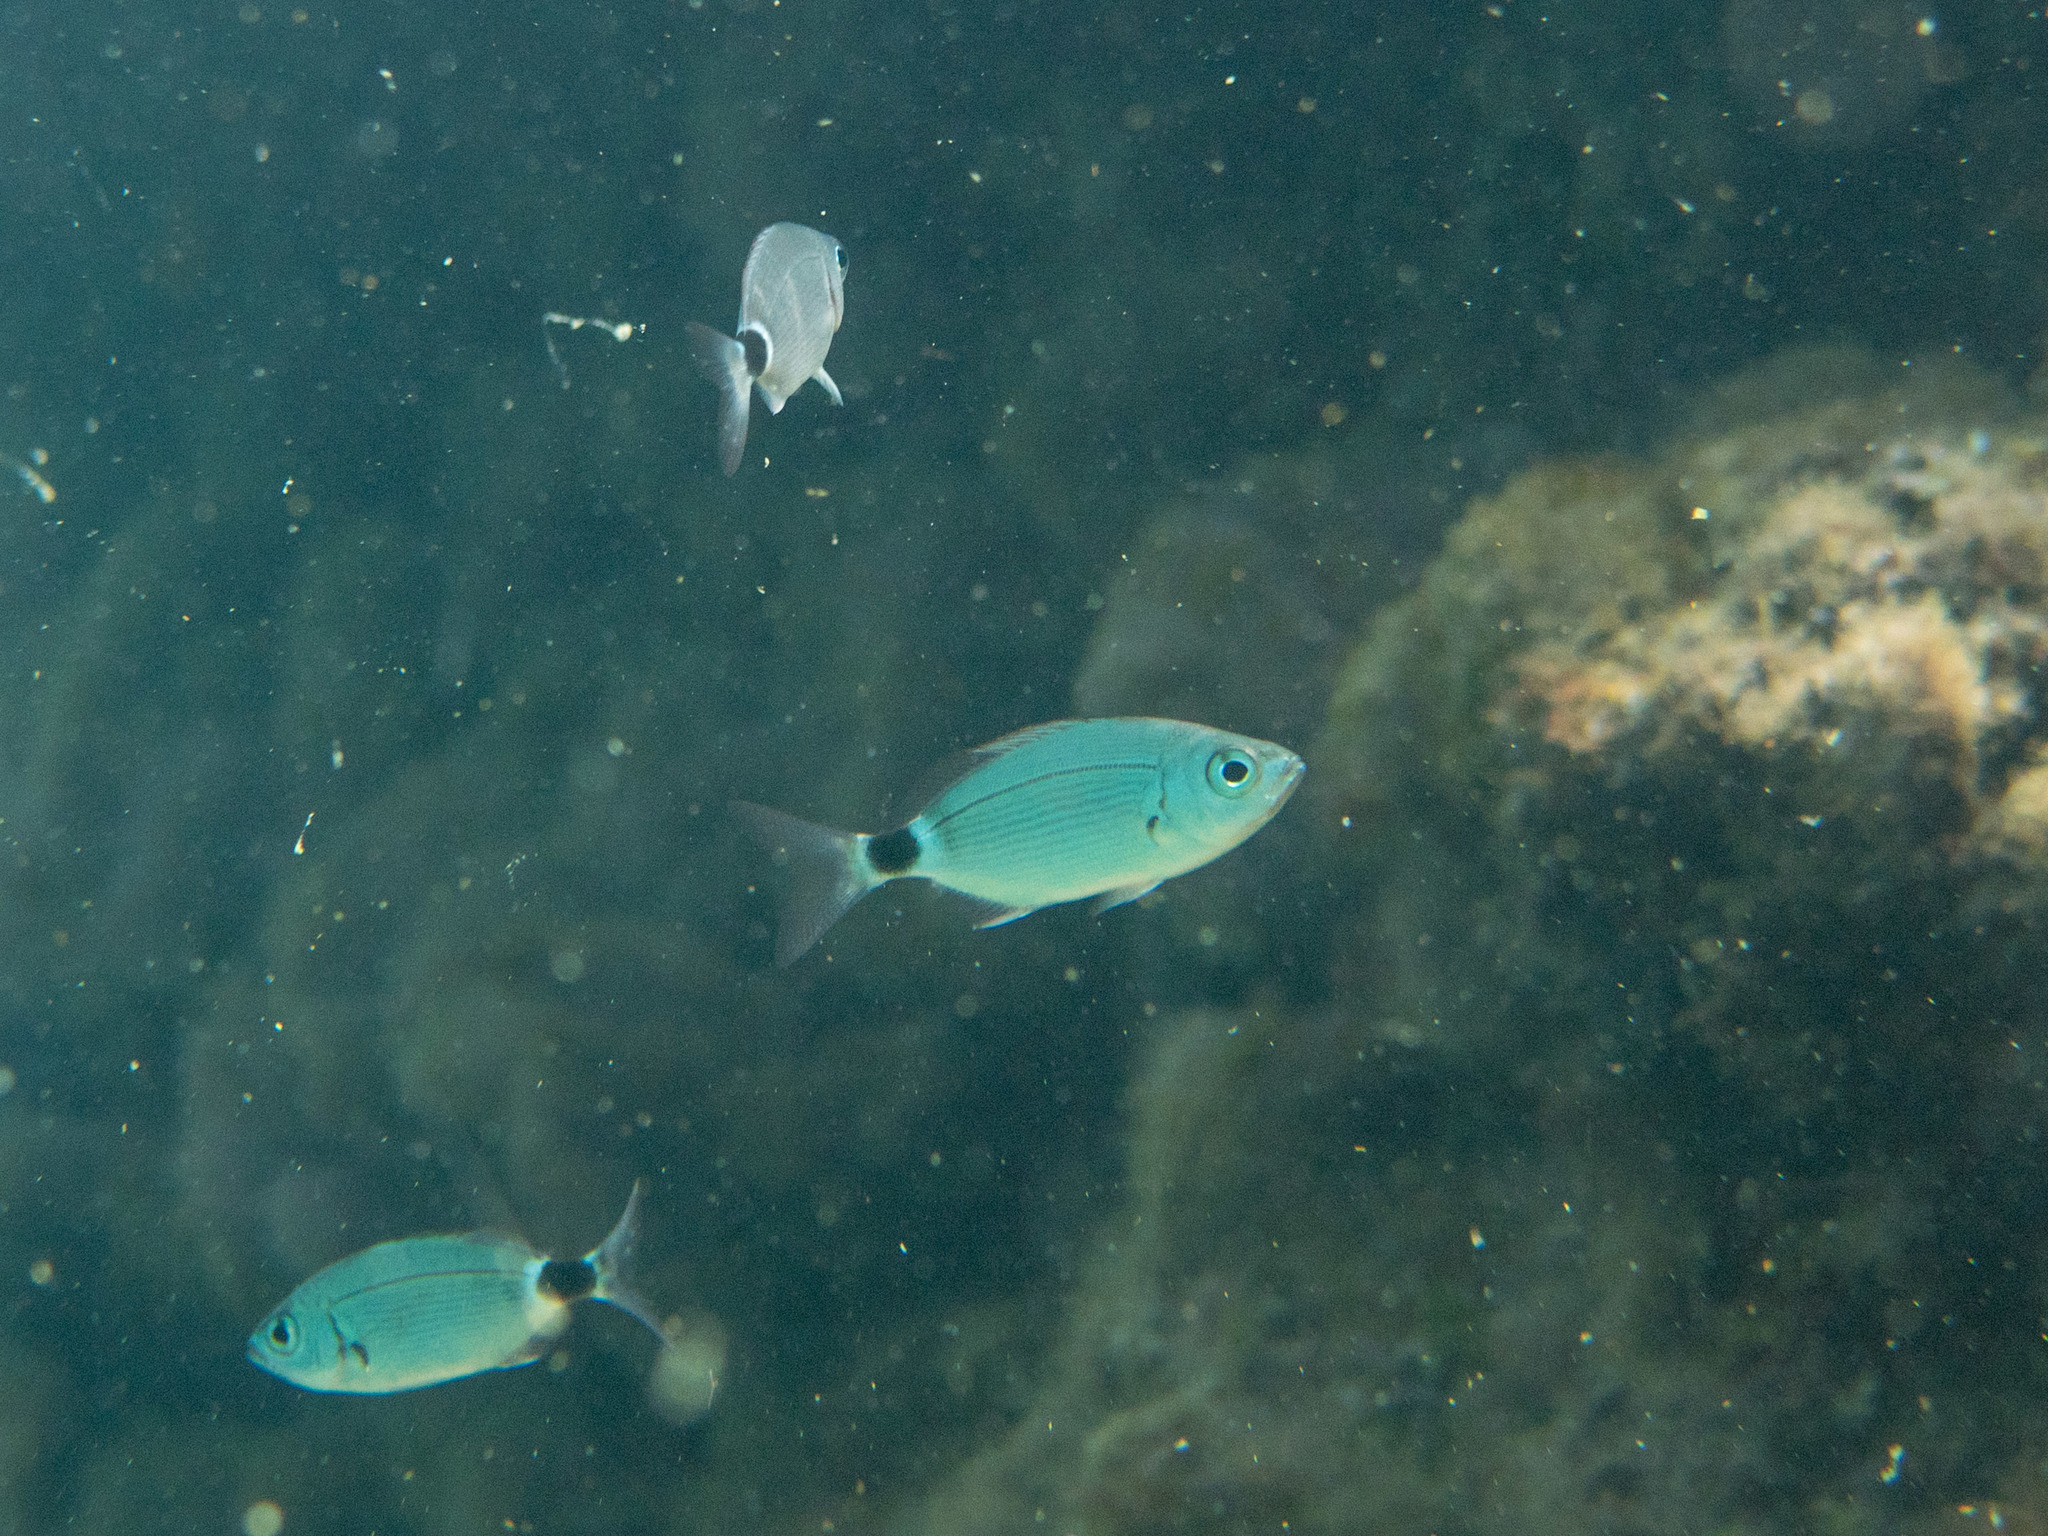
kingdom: Animalia
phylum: Chordata
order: Perciformes
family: Sparidae
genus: Oblada
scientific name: Oblada melanura
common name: Saddled seabream
